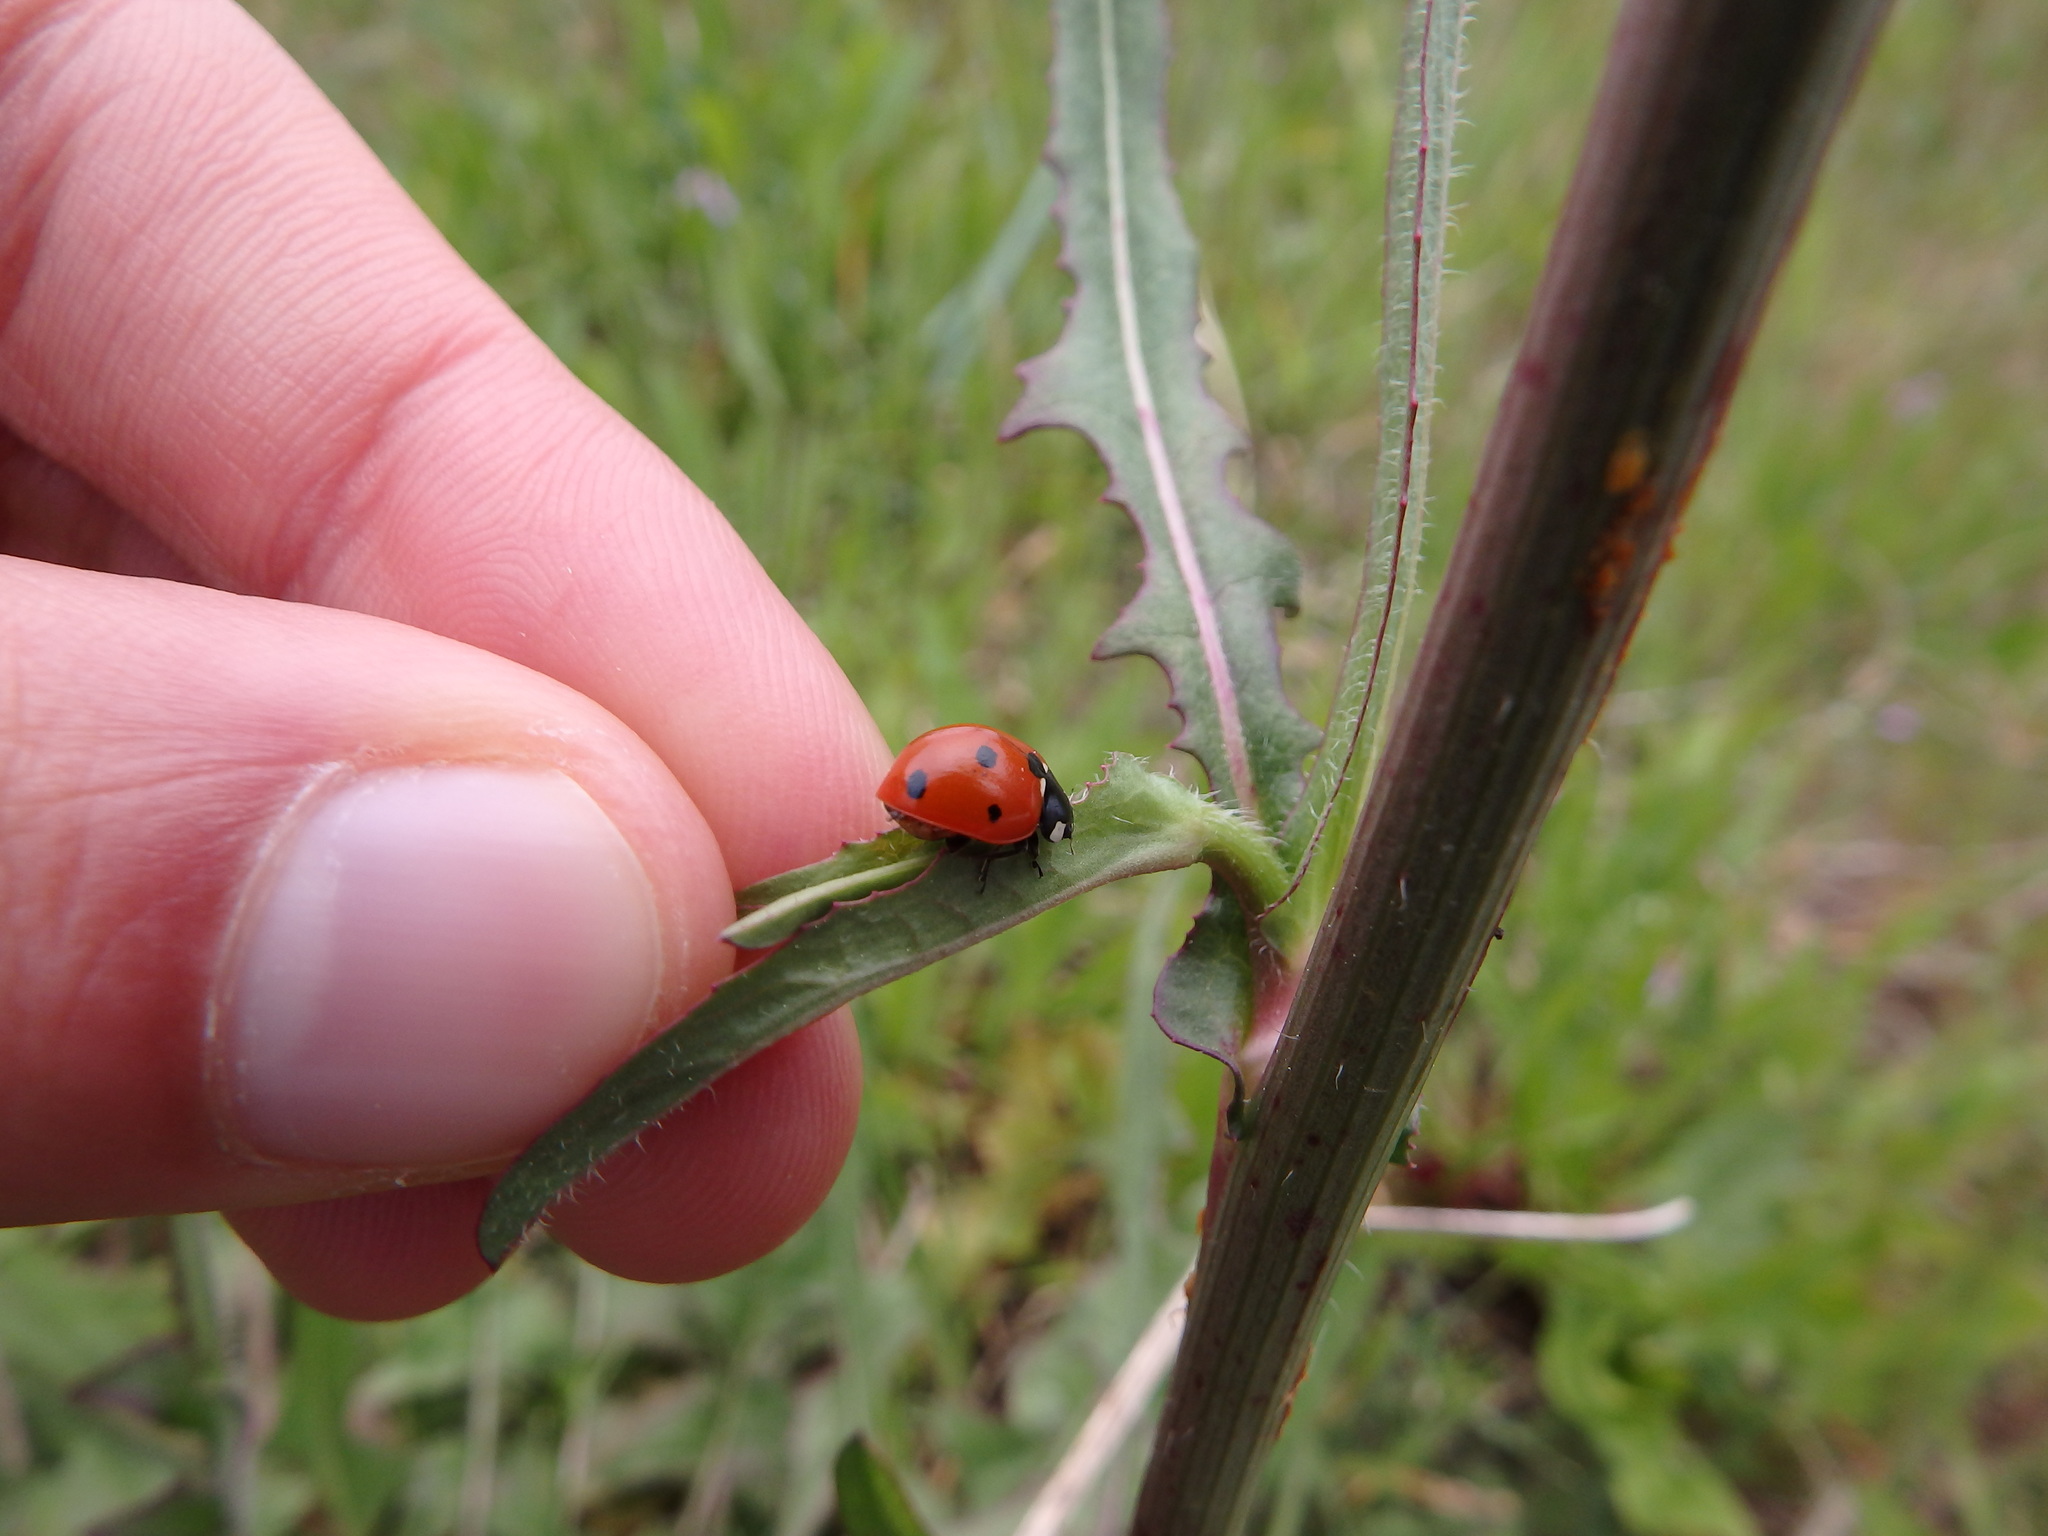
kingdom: Animalia
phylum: Arthropoda
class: Insecta
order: Coleoptera
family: Coccinellidae
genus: Coccinella
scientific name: Coccinella septempunctata
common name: Sevenspotted lady beetle
